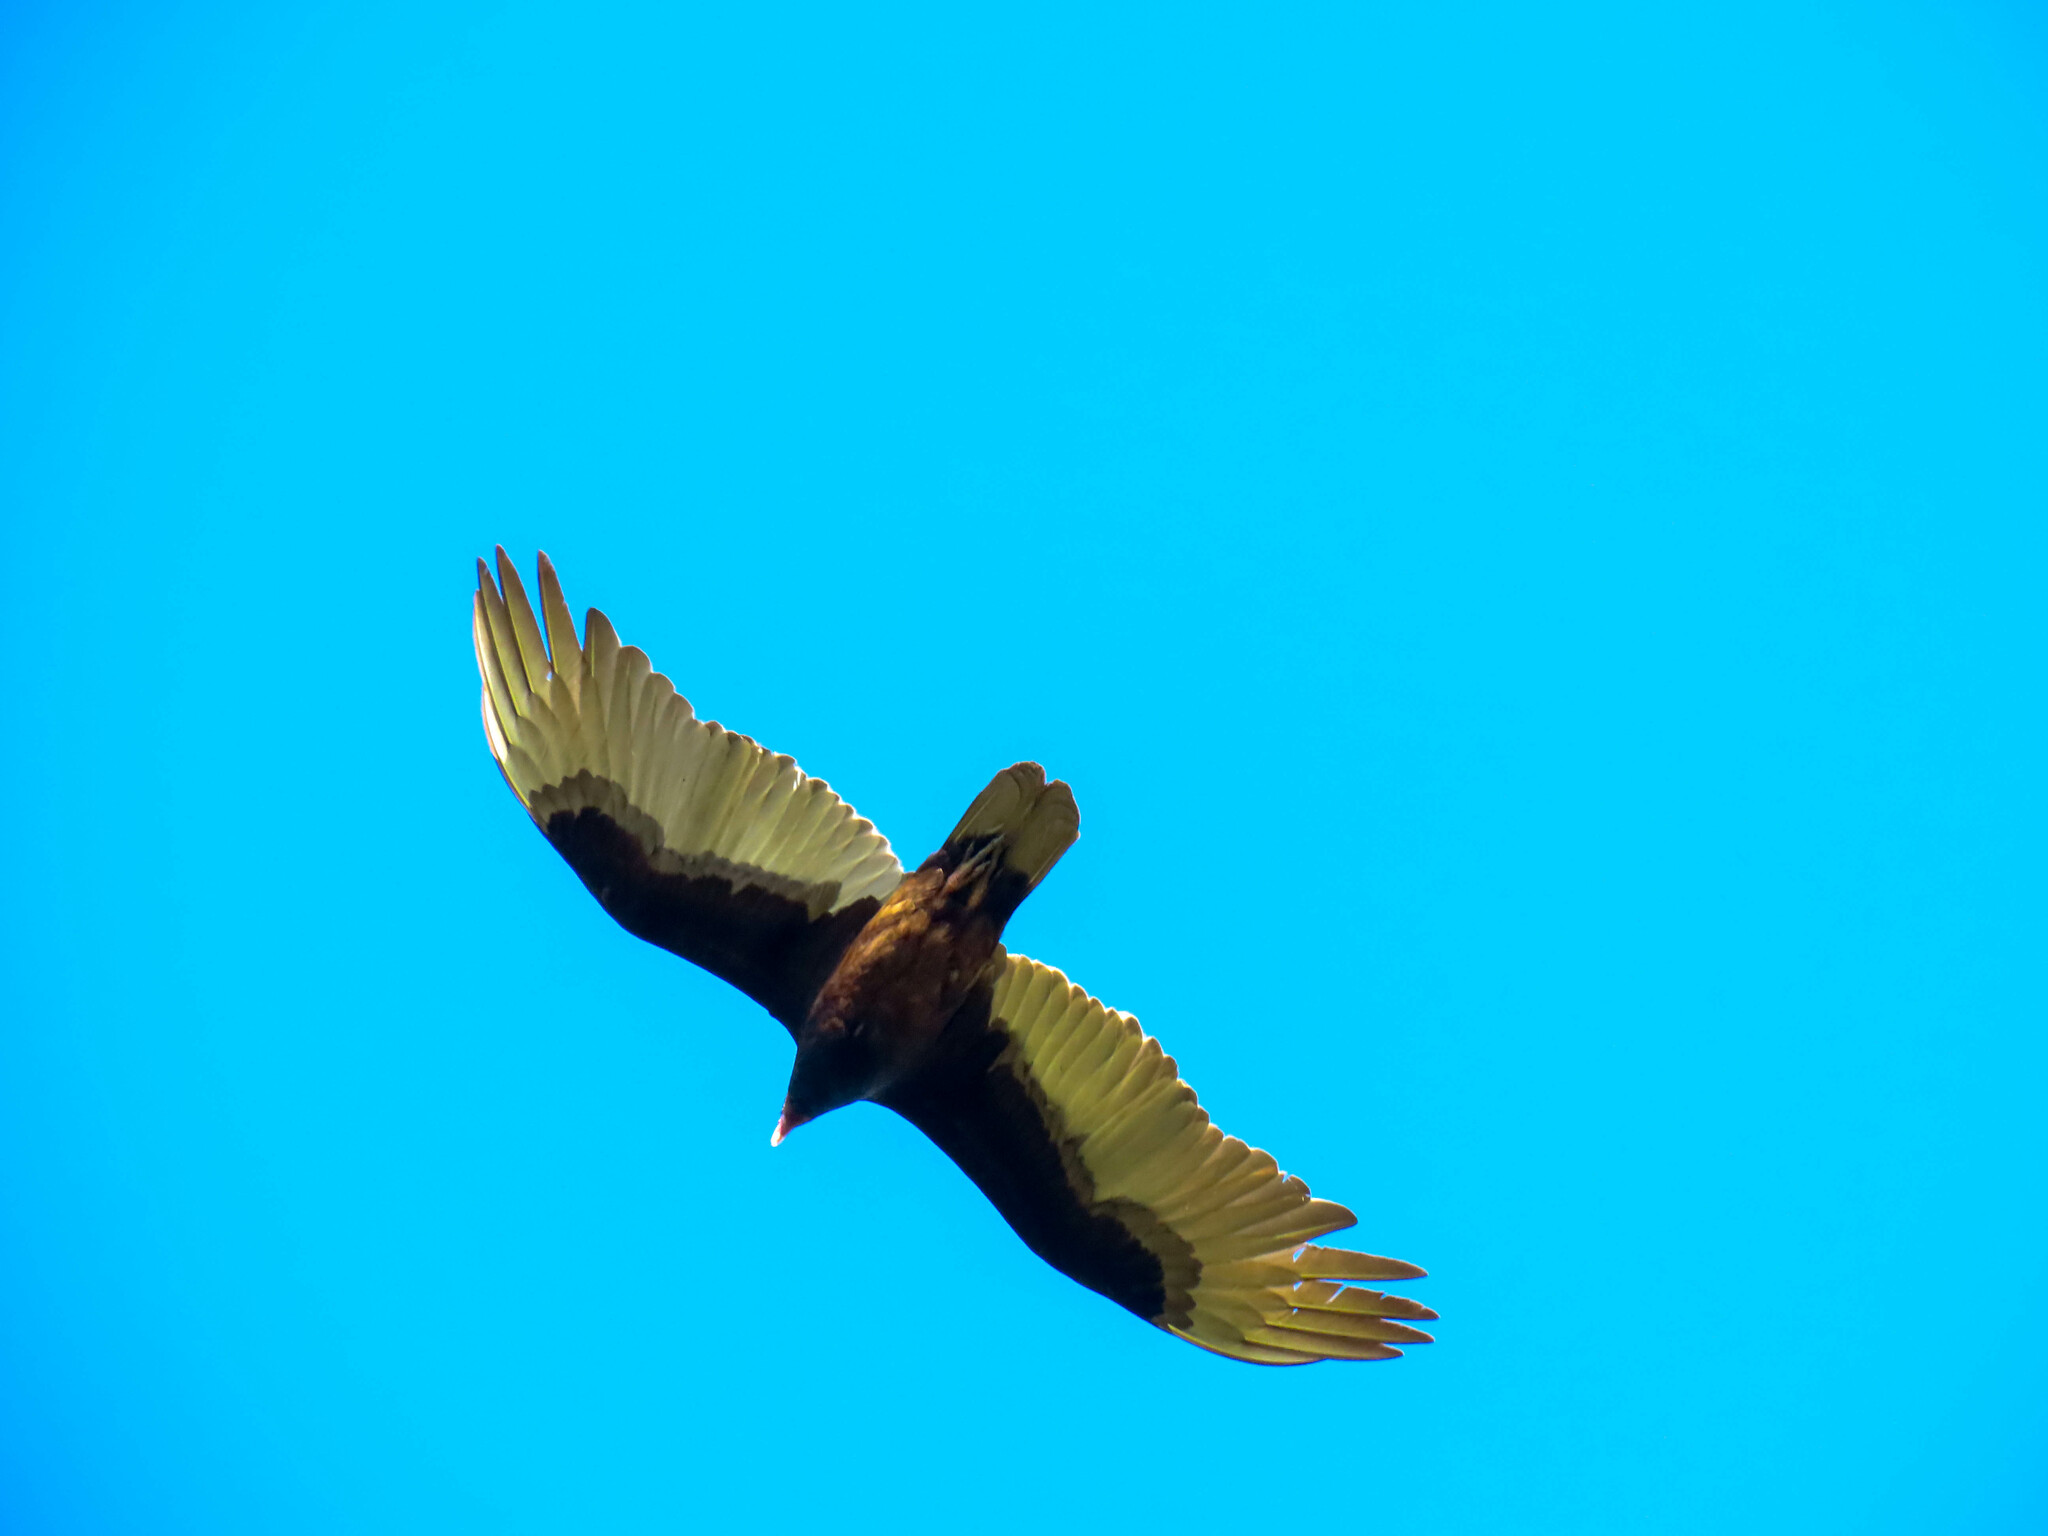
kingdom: Animalia
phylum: Chordata
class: Aves
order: Accipitriformes
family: Cathartidae
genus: Cathartes
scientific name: Cathartes aura
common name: Turkey vulture
